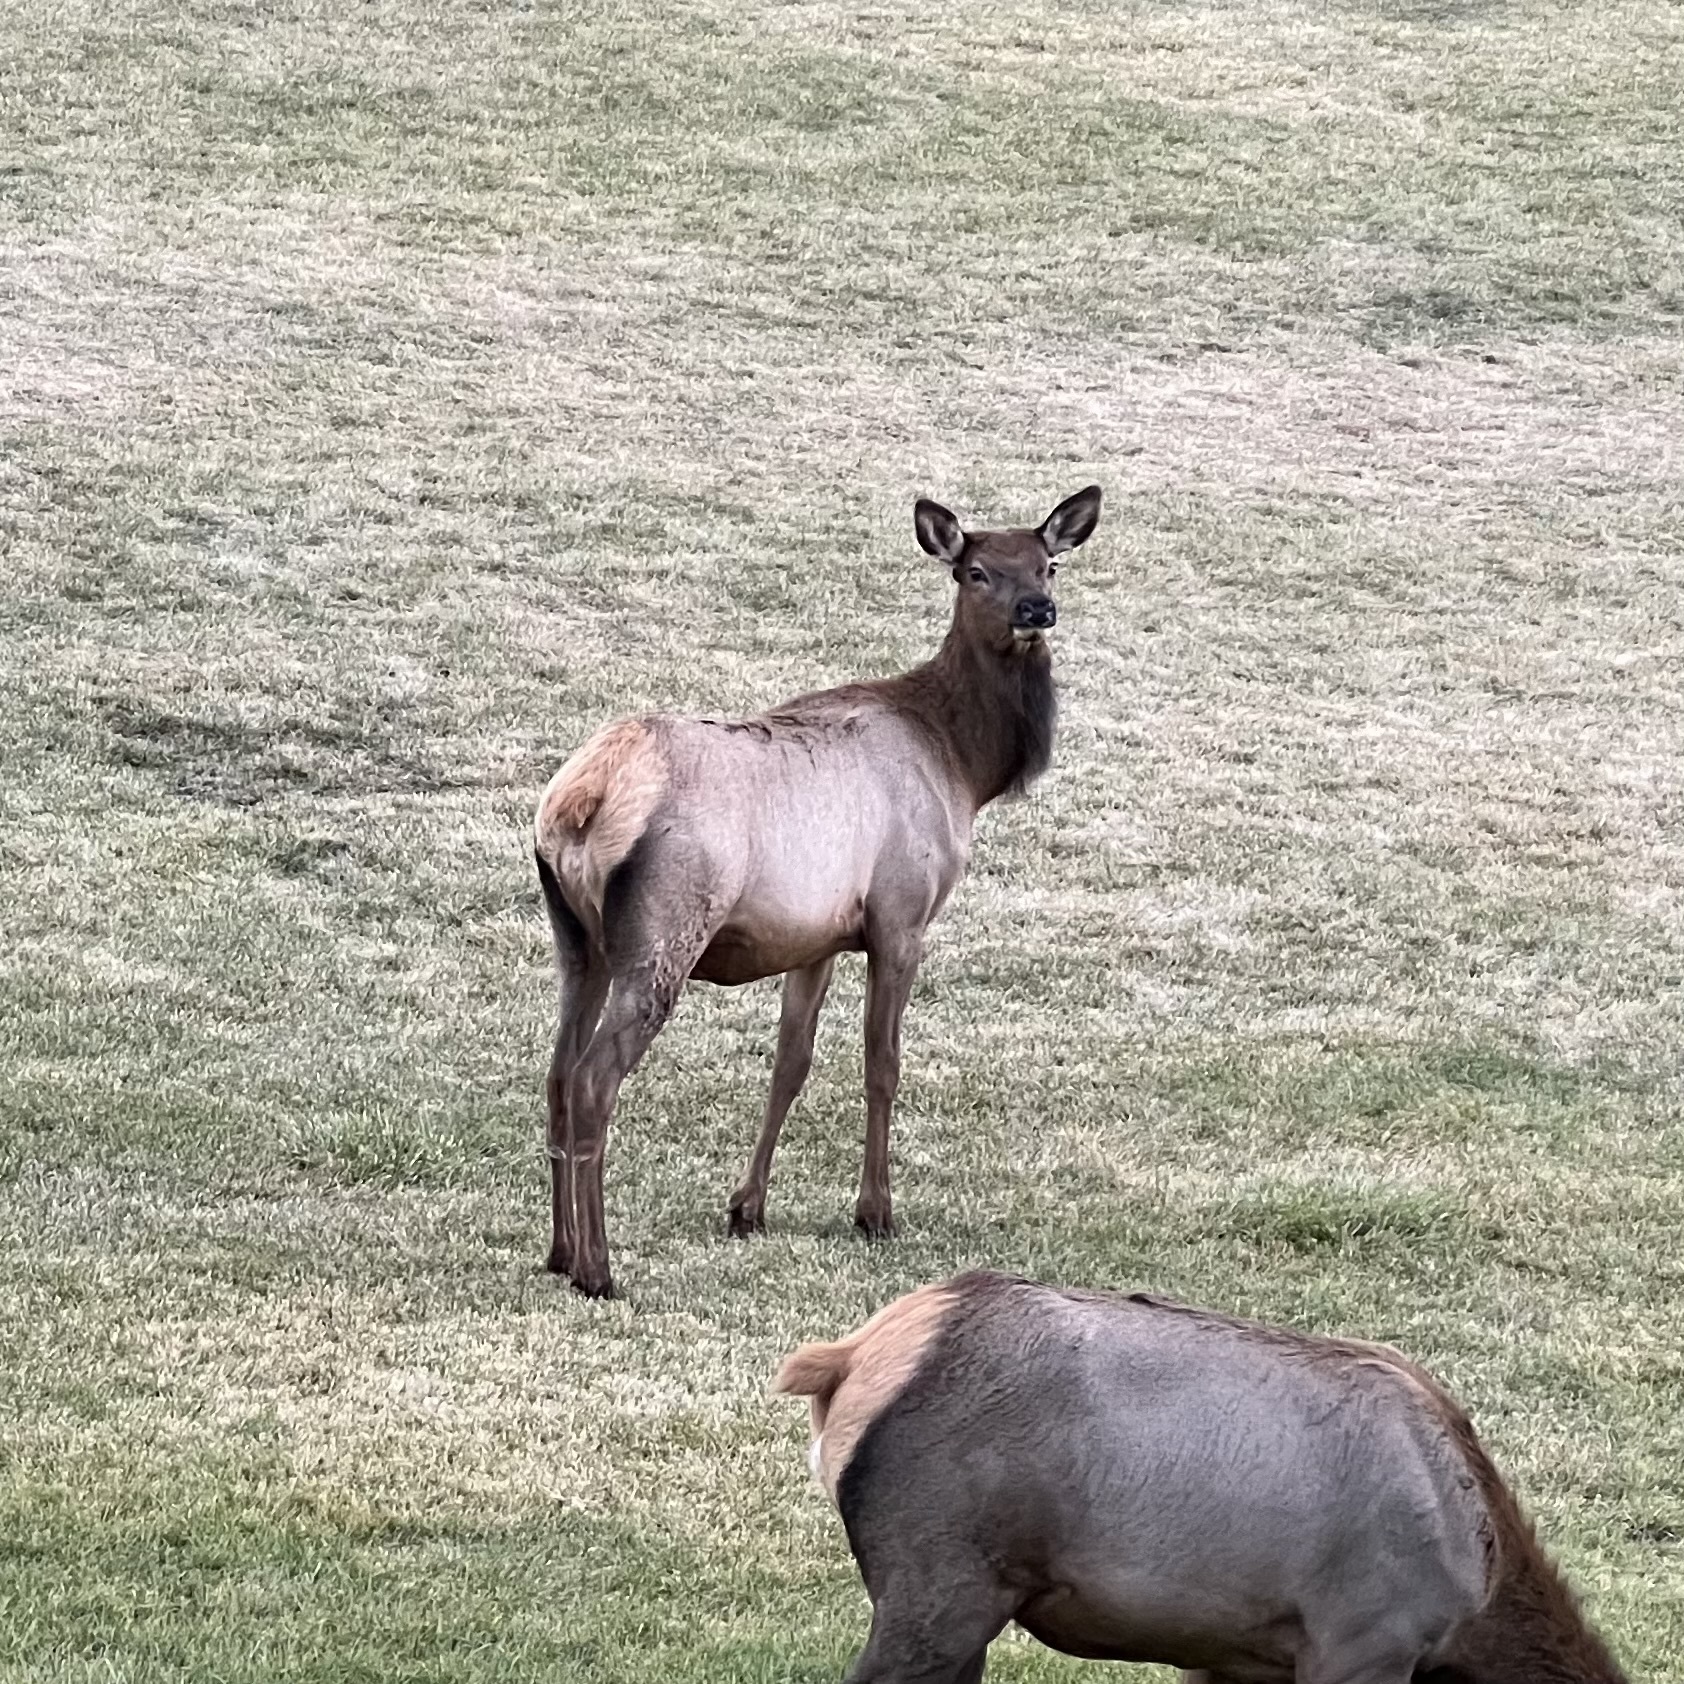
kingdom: Animalia
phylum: Chordata
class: Mammalia
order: Artiodactyla
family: Cervidae
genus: Cervus
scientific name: Cervus elaphus
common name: Red deer
